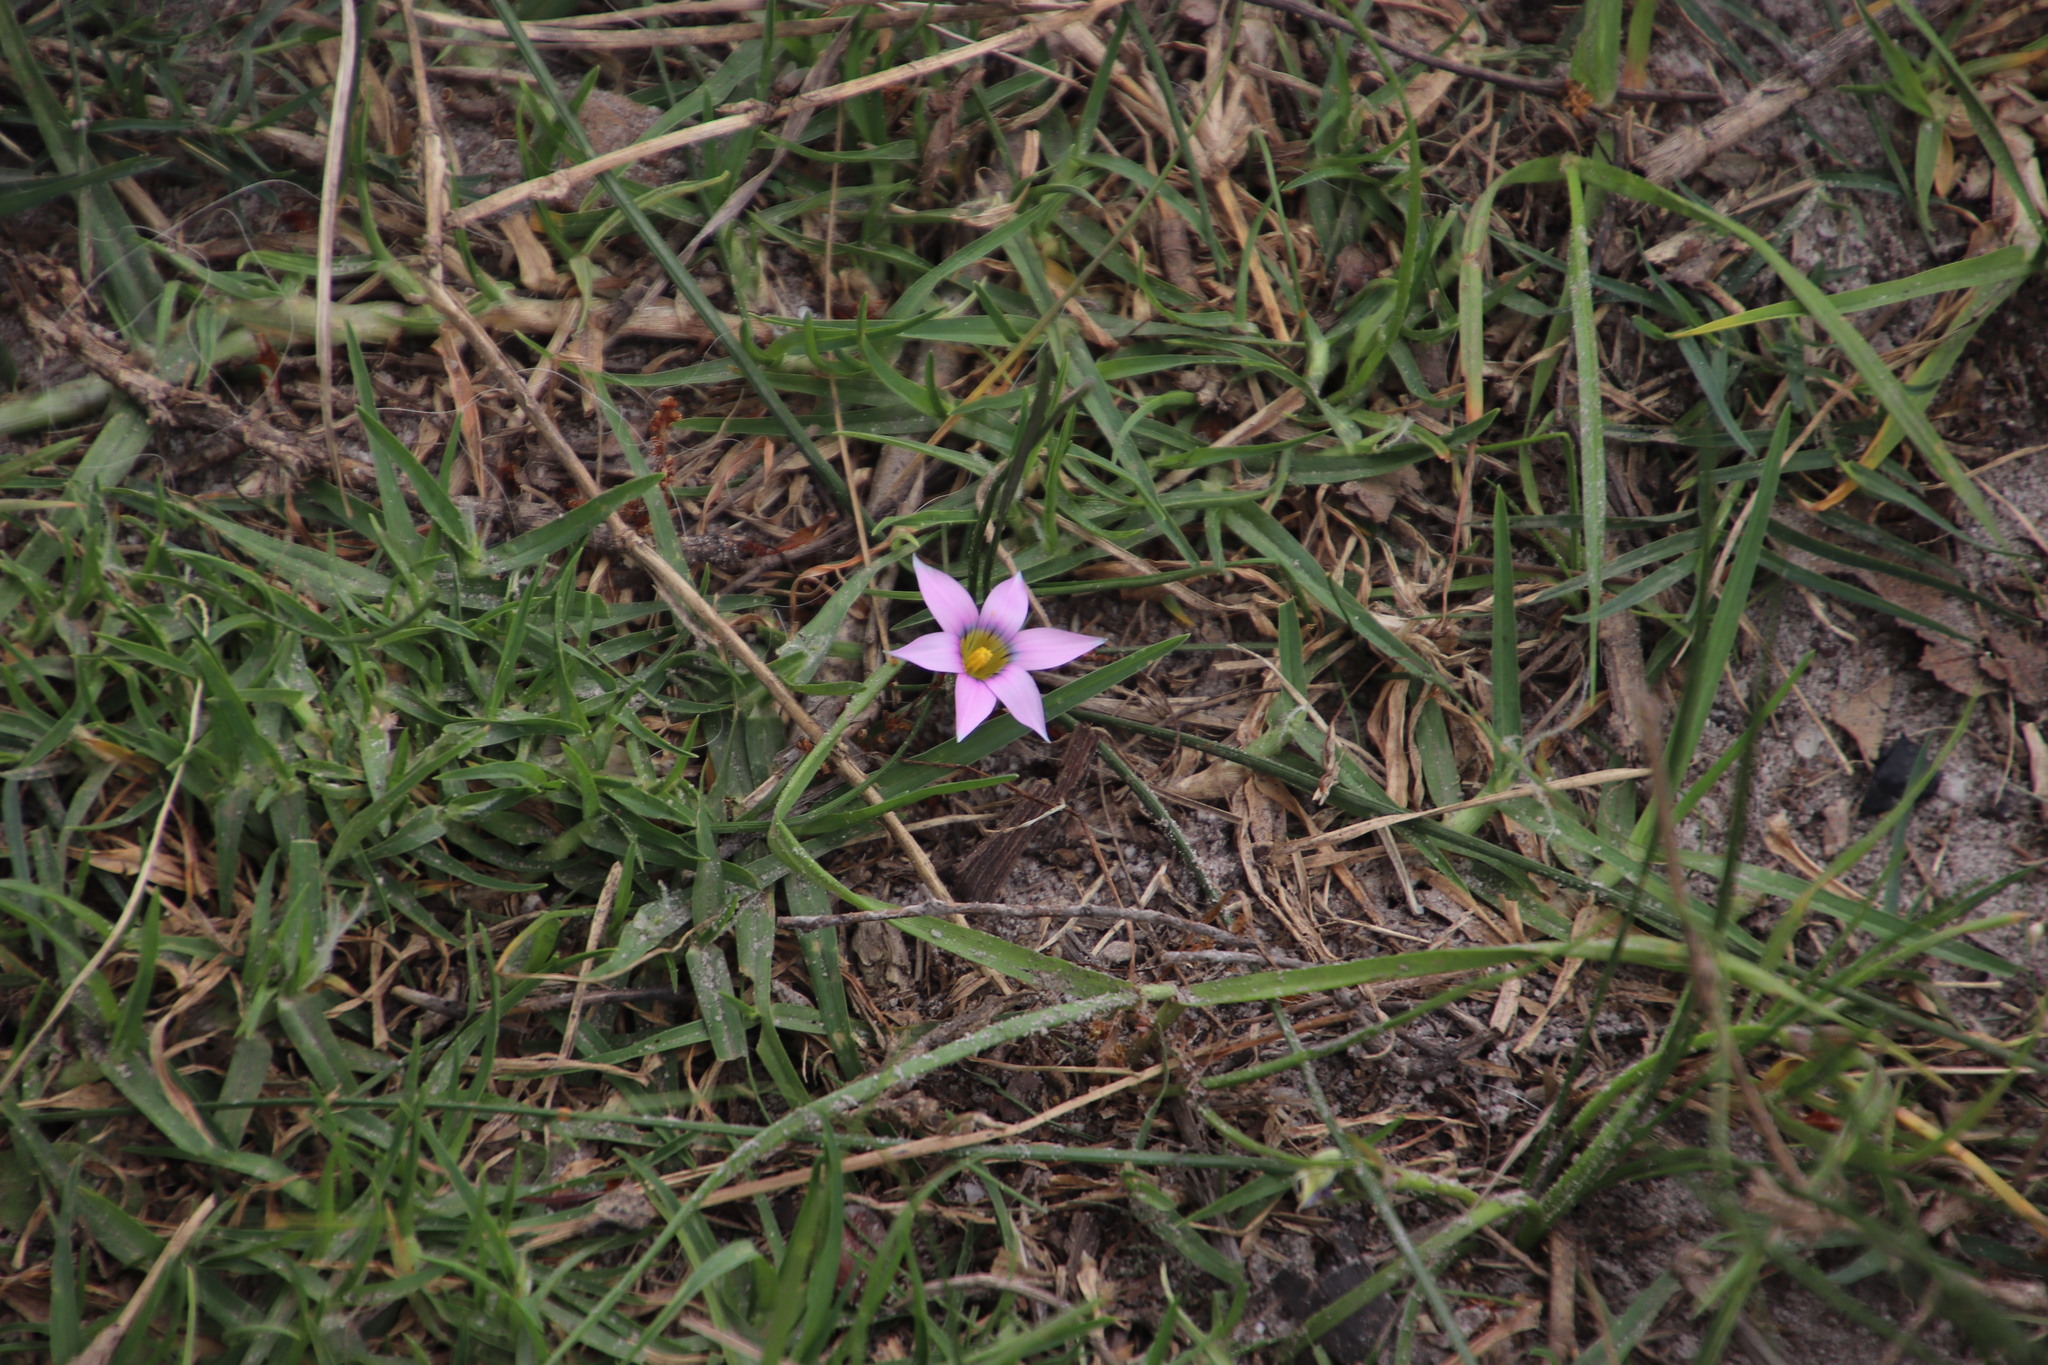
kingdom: Plantae
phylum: Tracheophyta
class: Liliopsida
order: Asparagales
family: Iridaceae
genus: Romulea
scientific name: Romulea rosea
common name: Oniongrass
